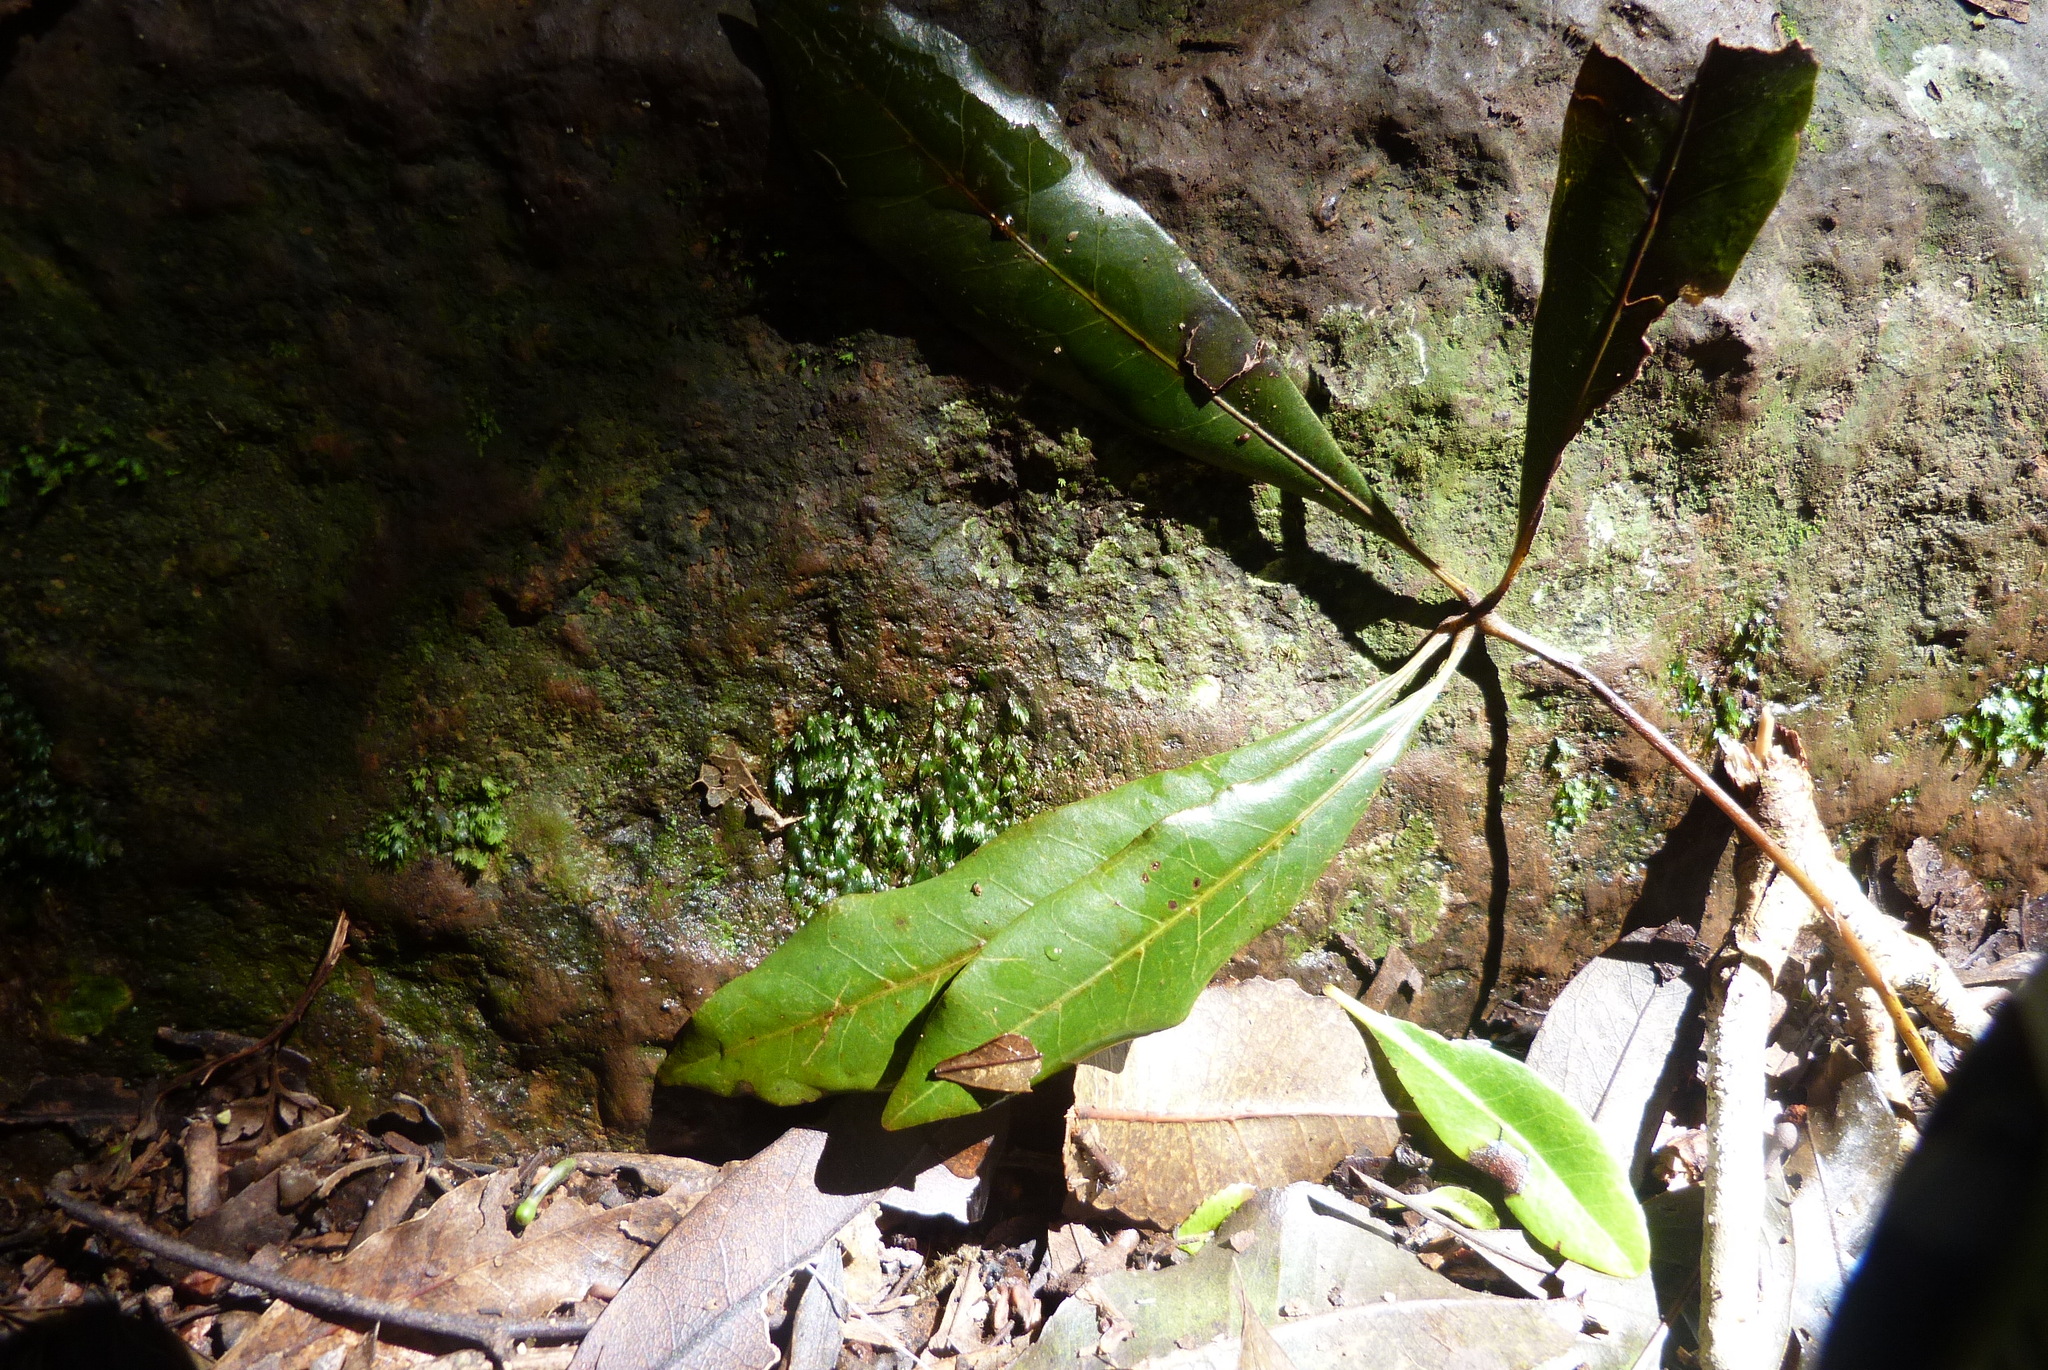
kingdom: Plantae
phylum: Tracheophyta
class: Magnoliopsida
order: Lamiales
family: Lamiaceae
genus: Vitex
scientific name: Vitex lignum-vitae
